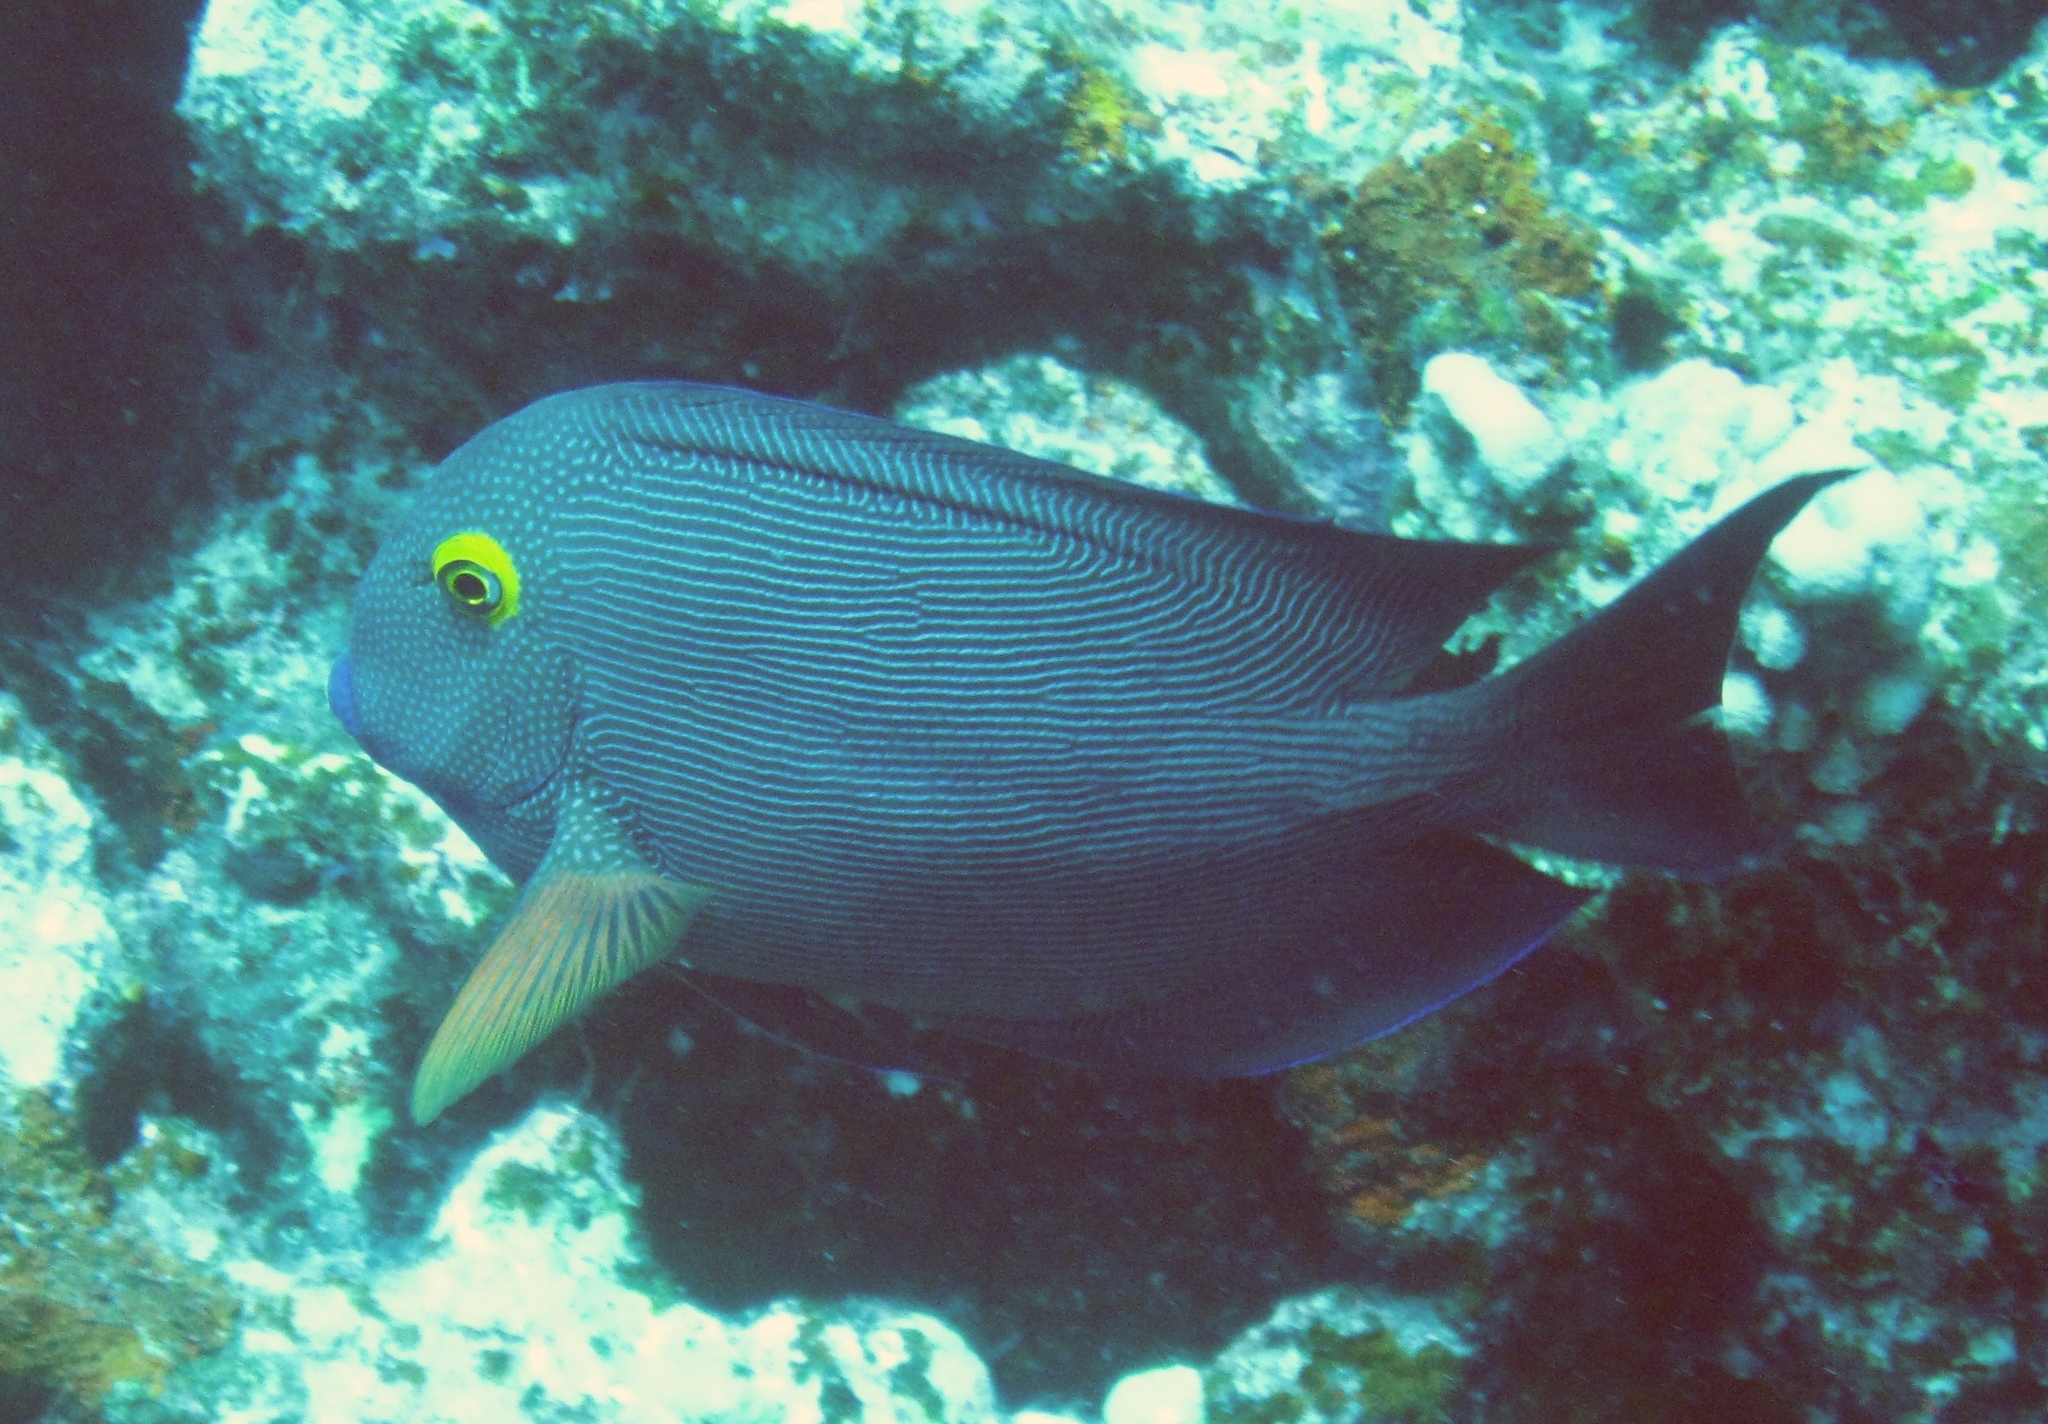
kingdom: Animalia
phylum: Chordata
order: Perciformes
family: Acanthuridae
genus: Ctenochaetus
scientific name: Ctenochaetus strigosus
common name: Bristletoothed surgeonfish
